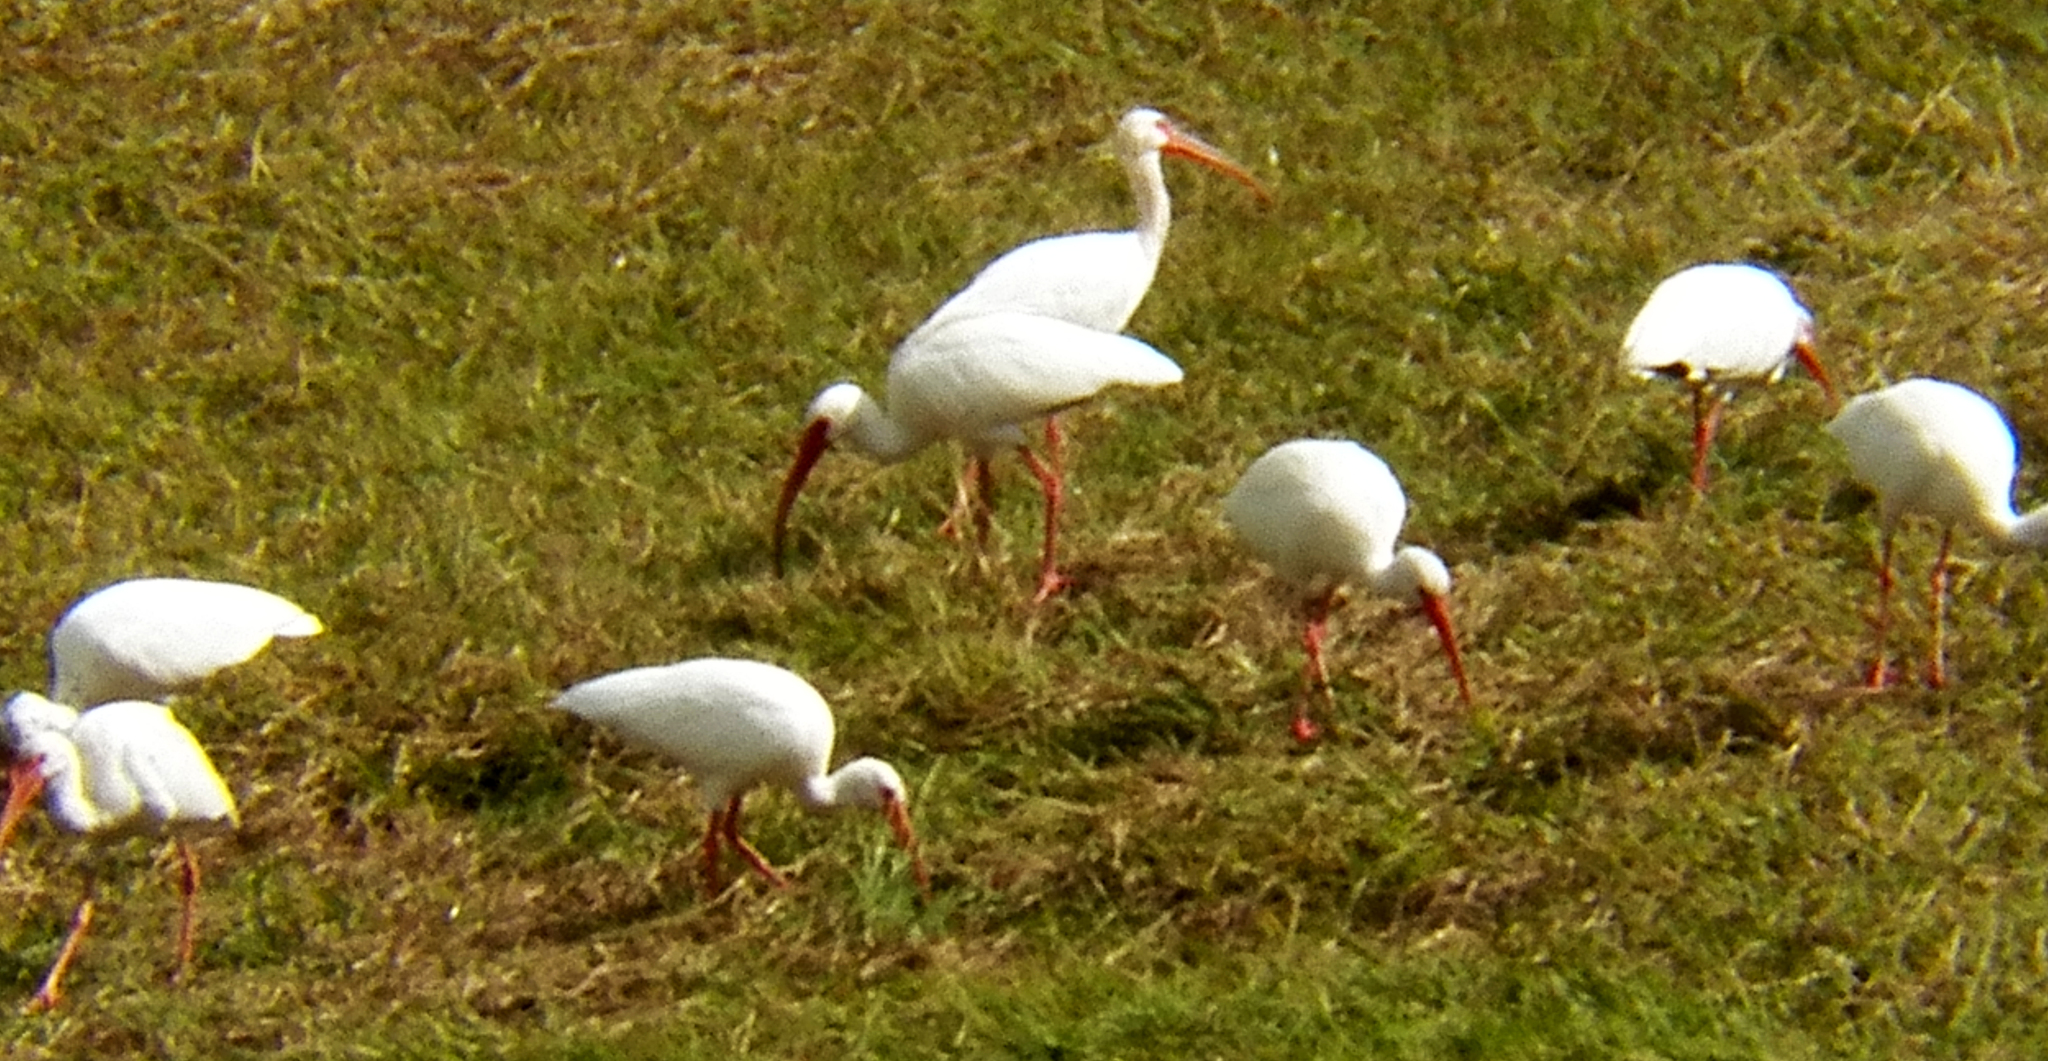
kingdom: Animalia
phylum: Chordata
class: Aves
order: Pelecaniformes
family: Threskiornithidae
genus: Eudocimus
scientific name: Eudocimus albus
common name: White ibis
